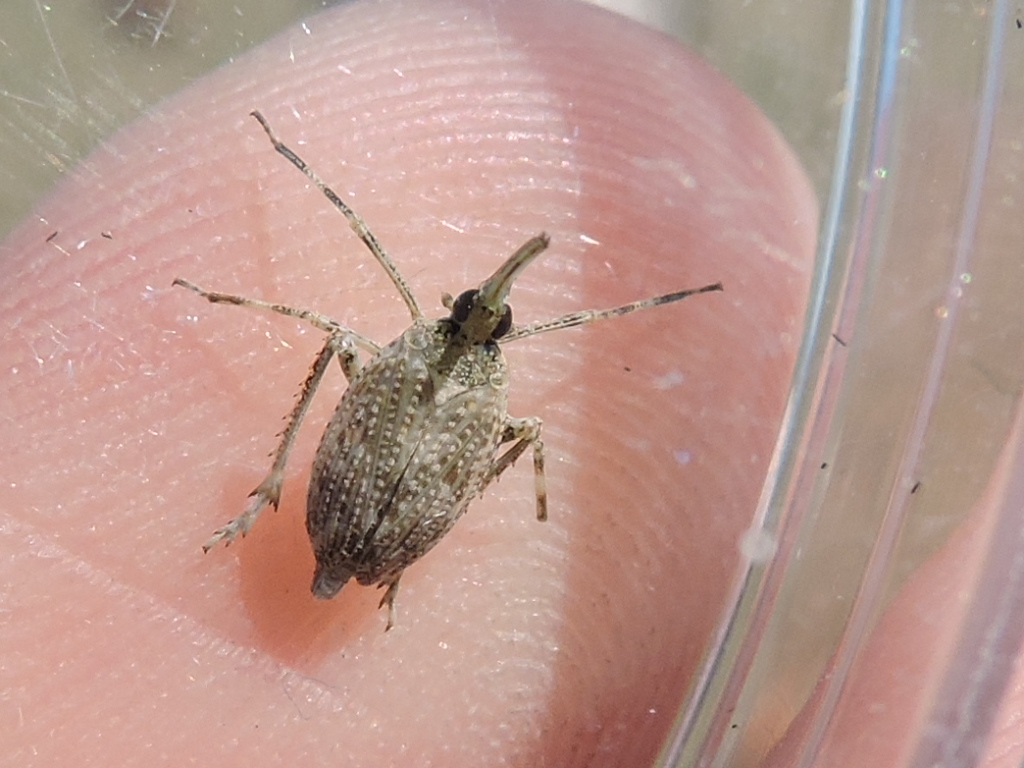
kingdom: Animalia
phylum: Arthropoda
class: Insecta
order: Hemiptera
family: Dictyopharidae
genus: Scolops
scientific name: Scolops pungens
